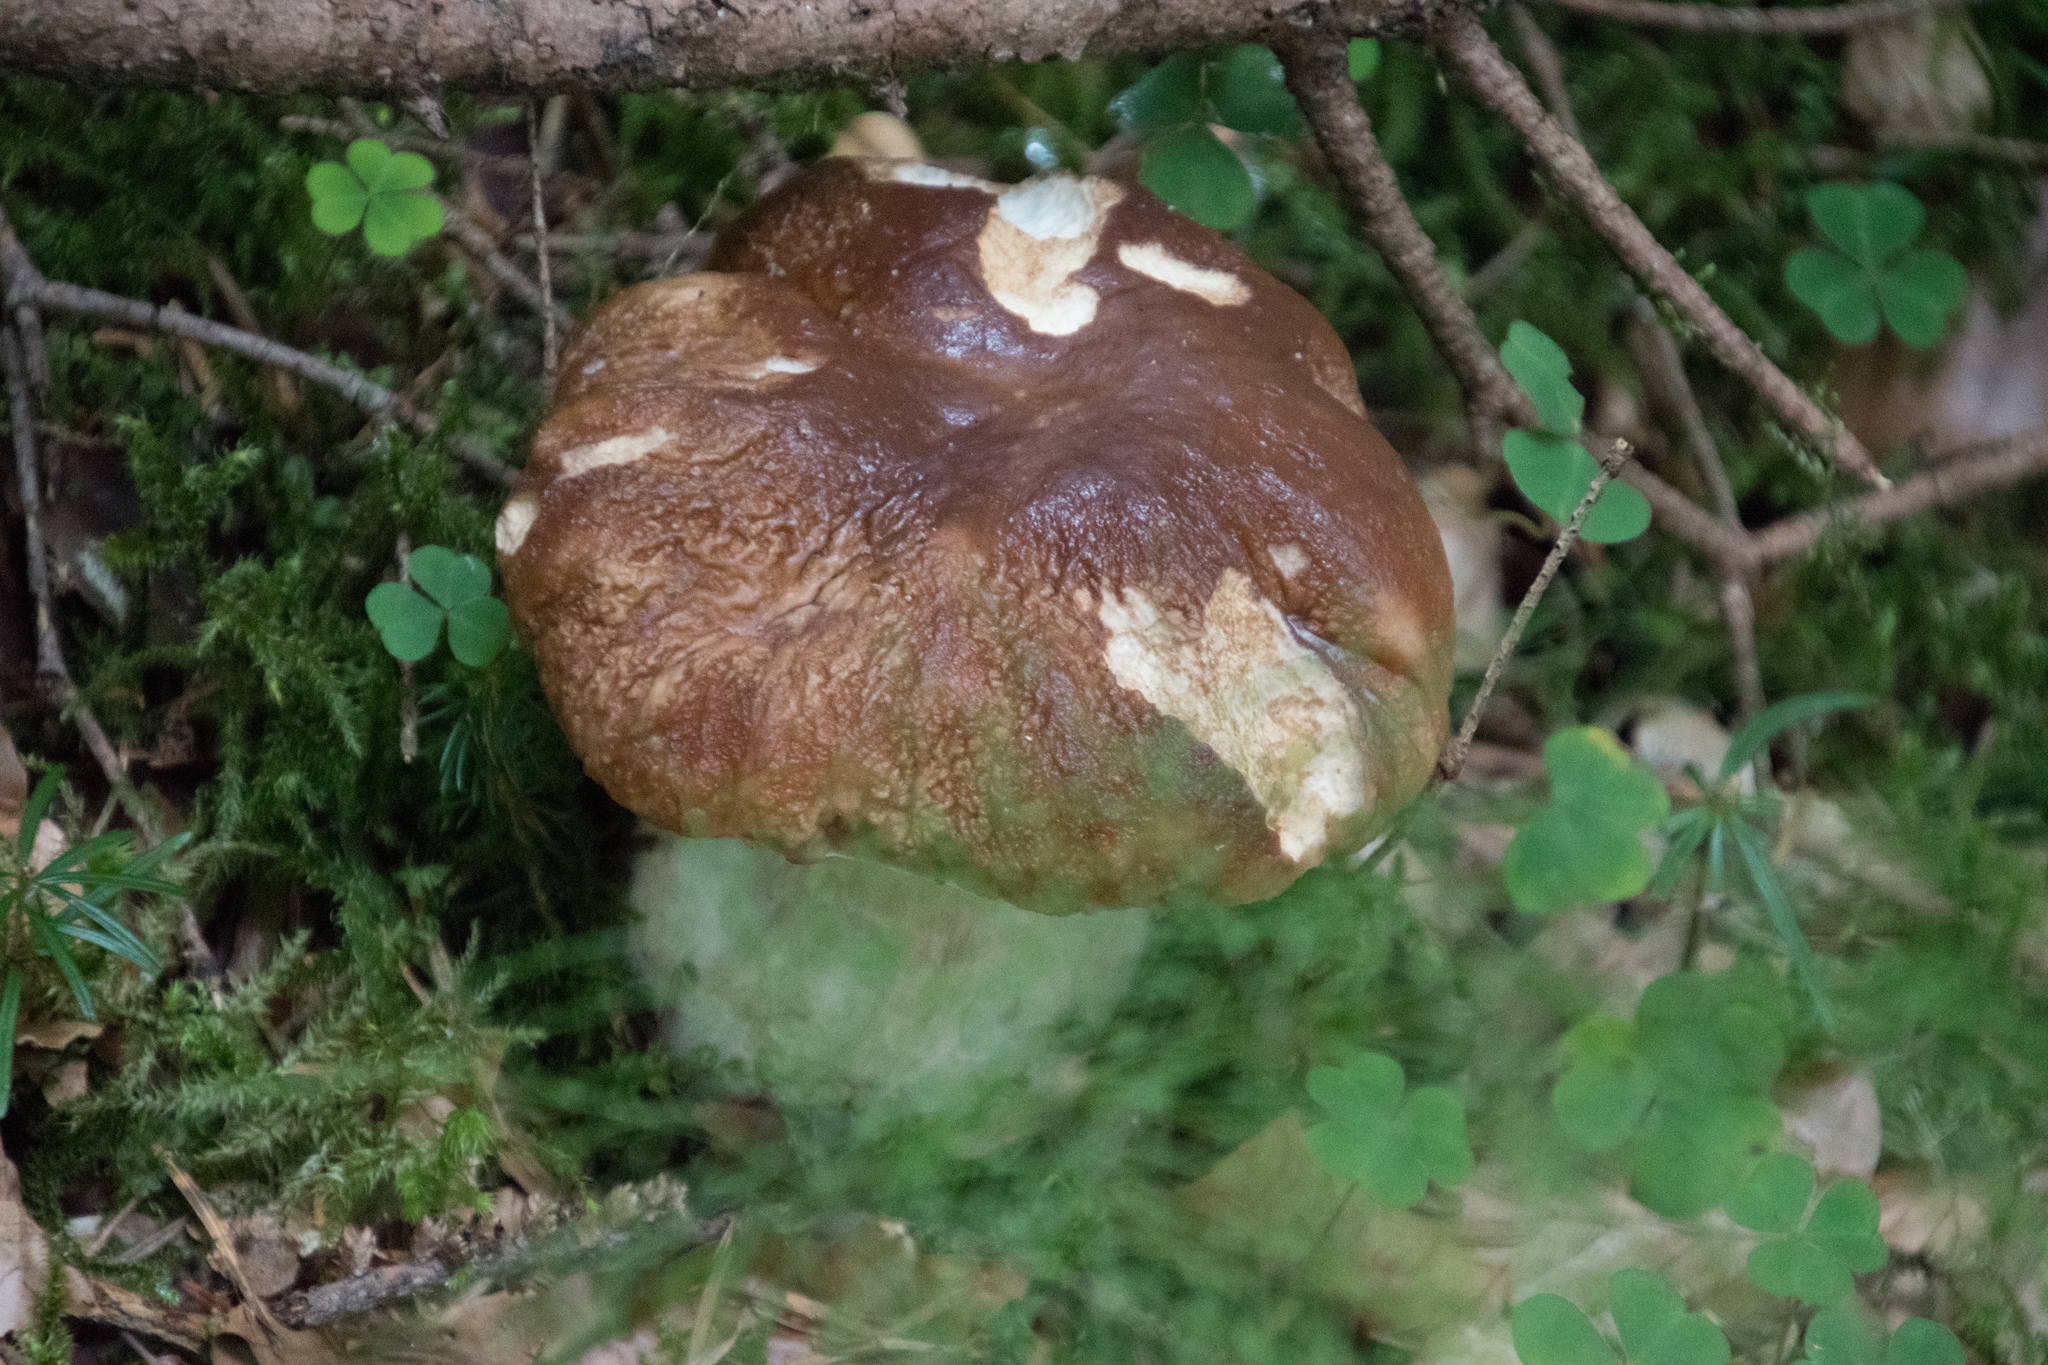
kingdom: Fungi
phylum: Basidiomycota
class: Agaricomycetes
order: Boletales
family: Boletaceae
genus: Boletus
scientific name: Boletus edulis
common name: Cep
